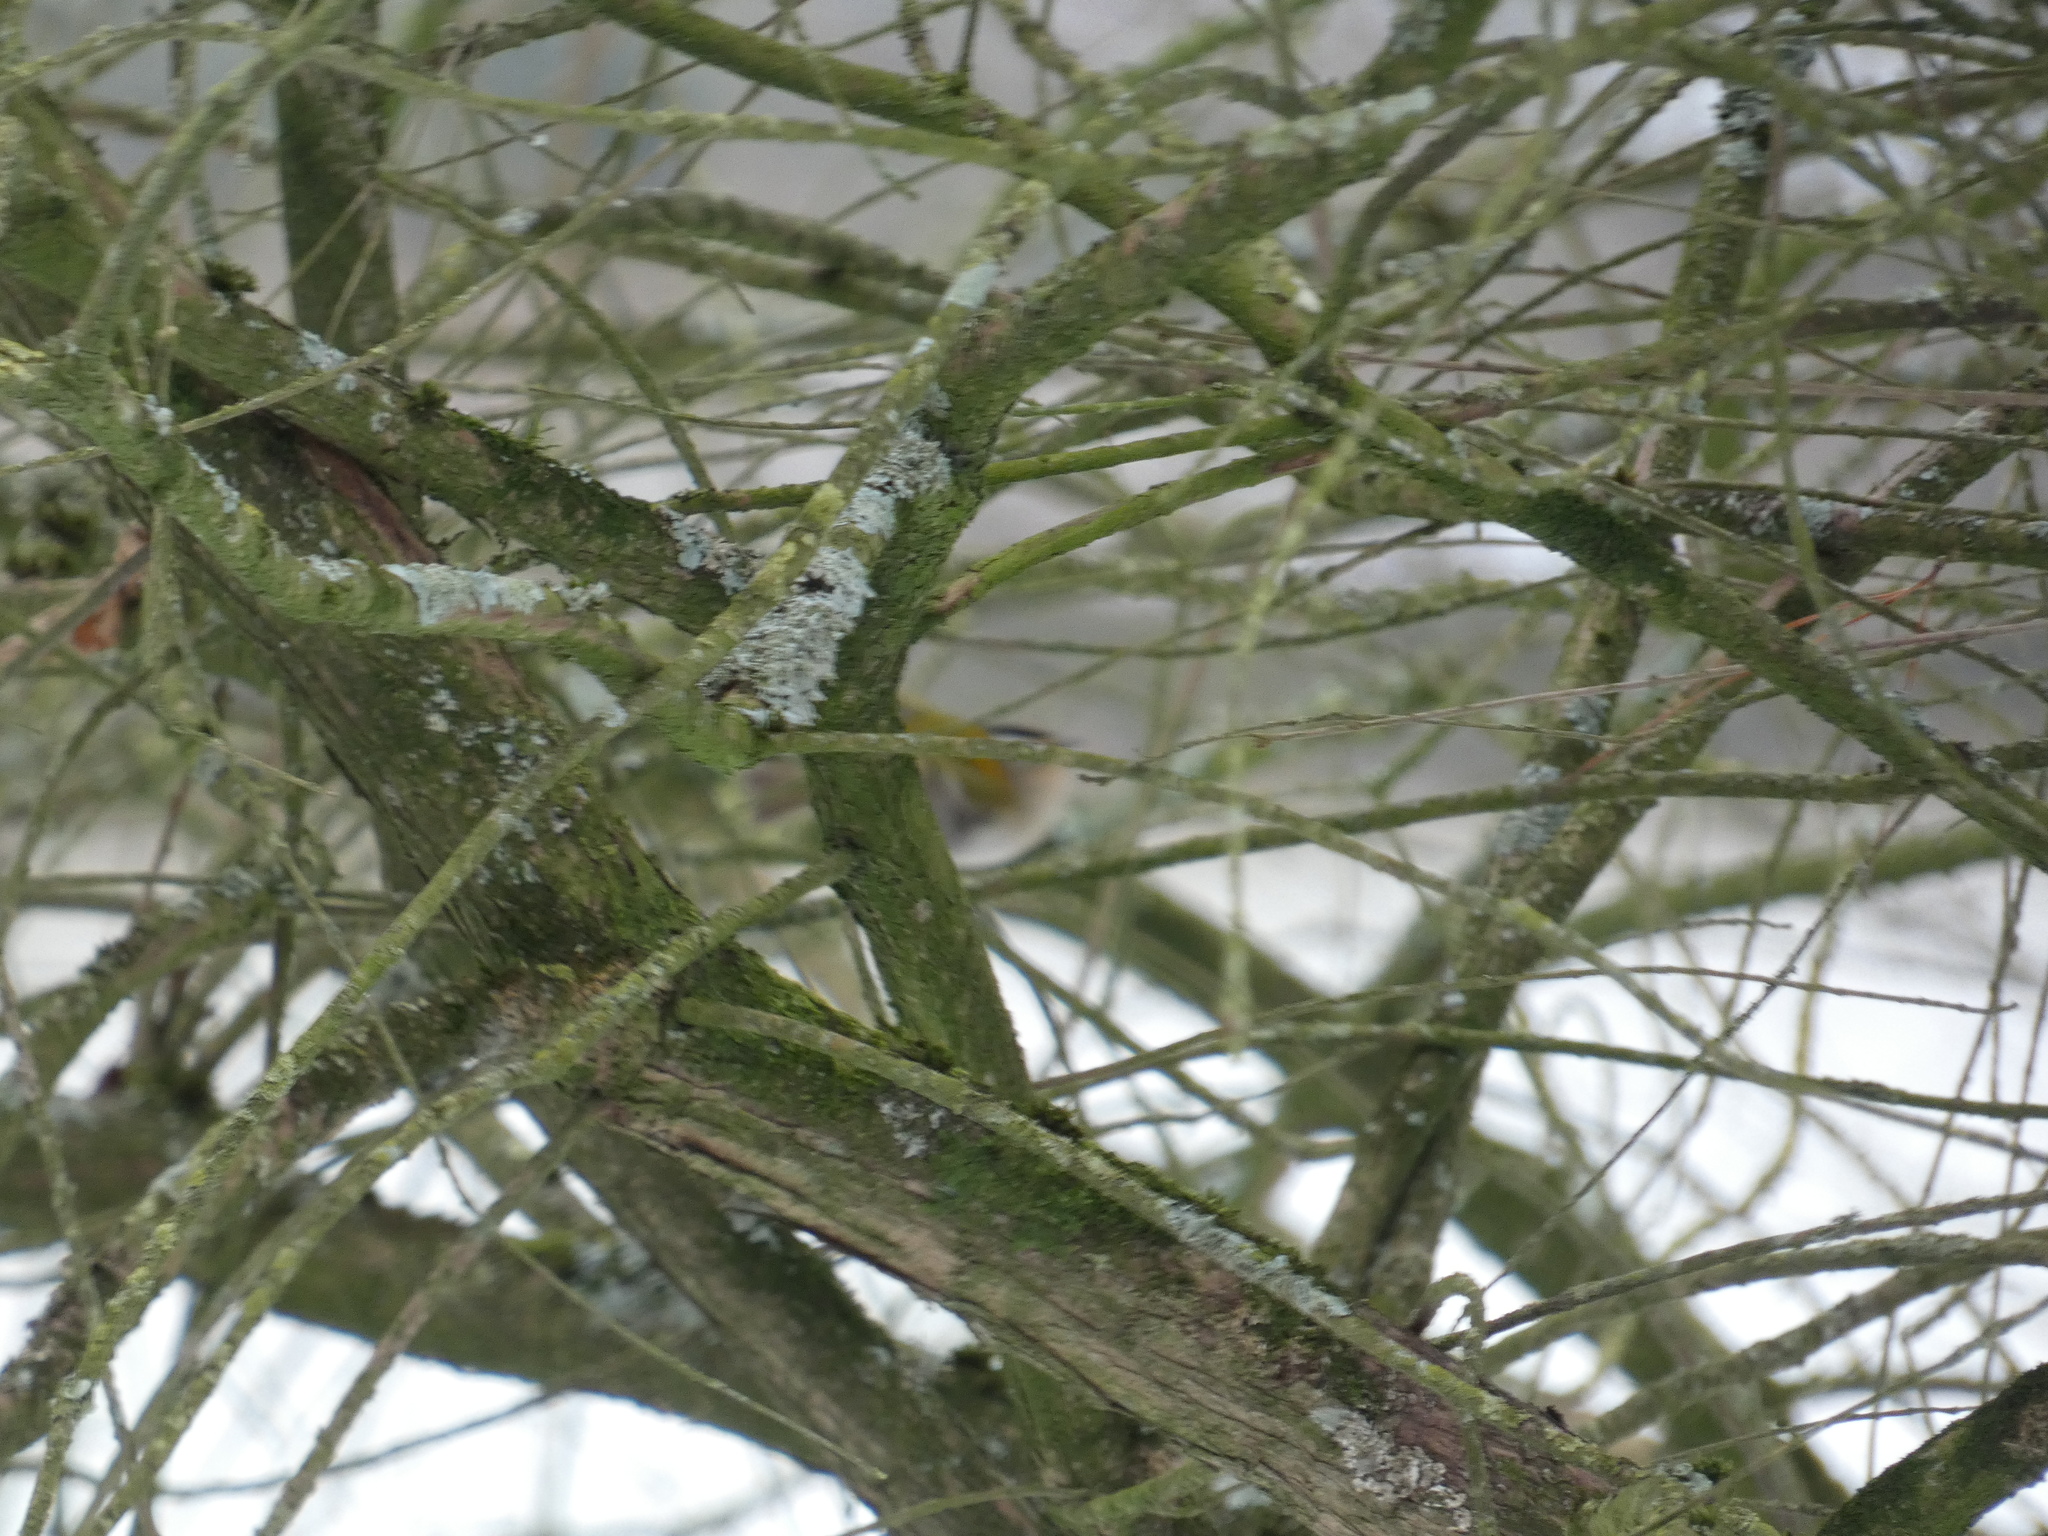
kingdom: Animalia
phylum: Chordata
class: Aves
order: Passeriformes
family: Regulidae
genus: Regulus
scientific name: Regulus ignicapilla
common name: Firecrest
